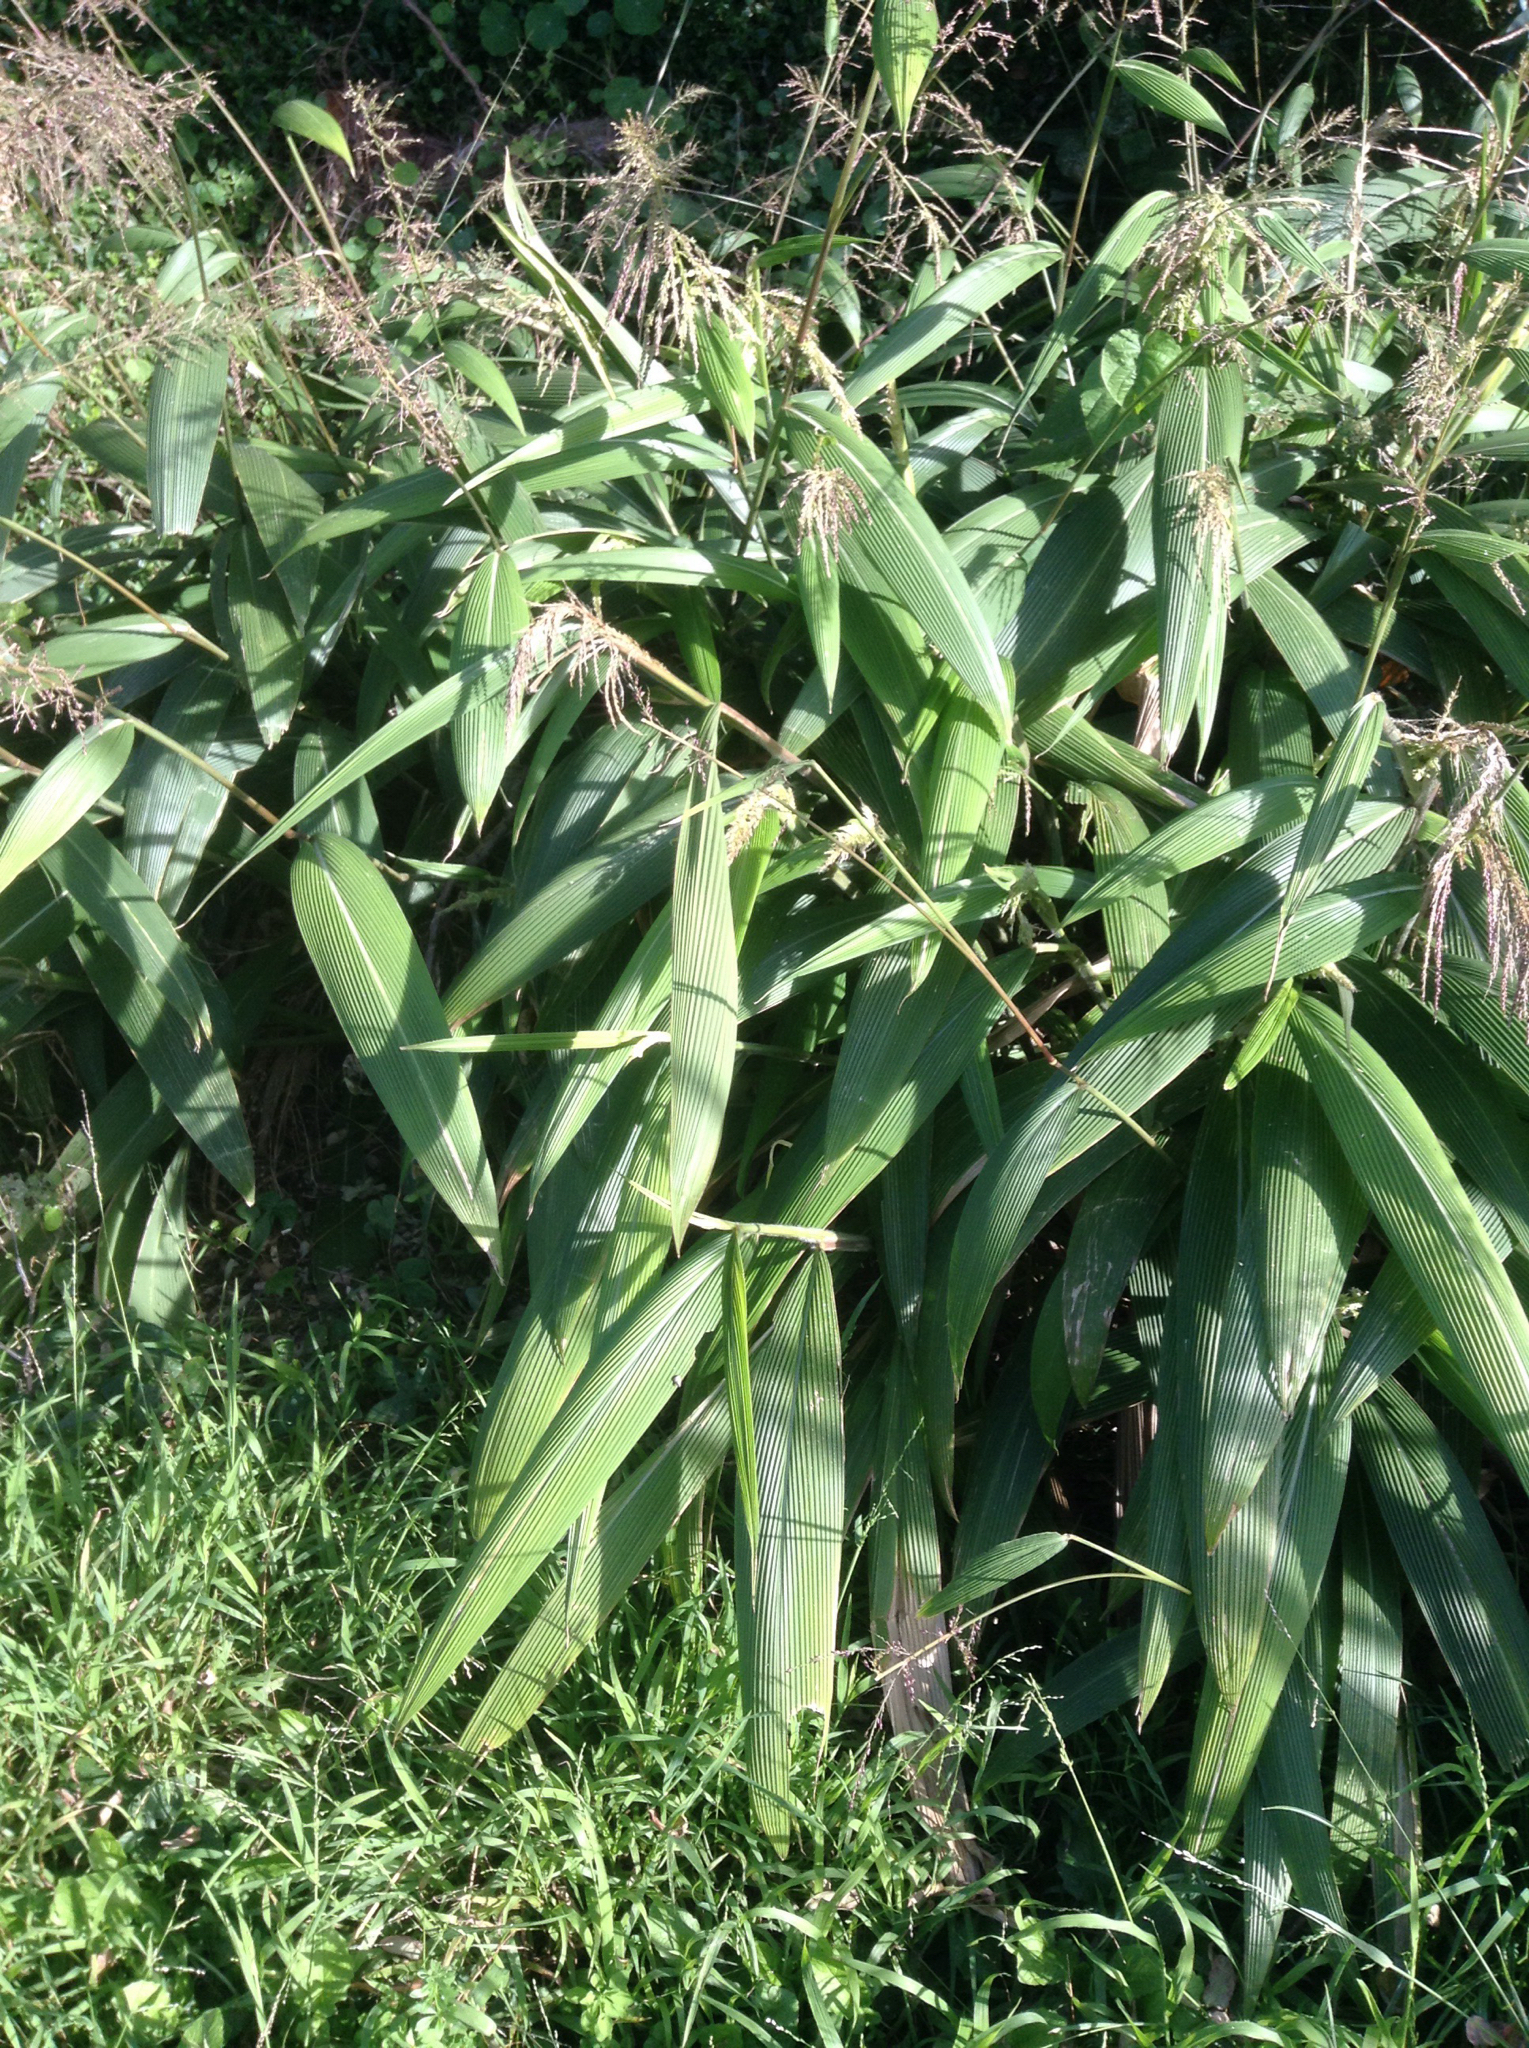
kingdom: Plantae
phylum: Tracheophyta
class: Liliopsida
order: Poales
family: Poaceae
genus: Setaria
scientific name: Setaria palmifolia
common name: Broadleaved bristlegrass
